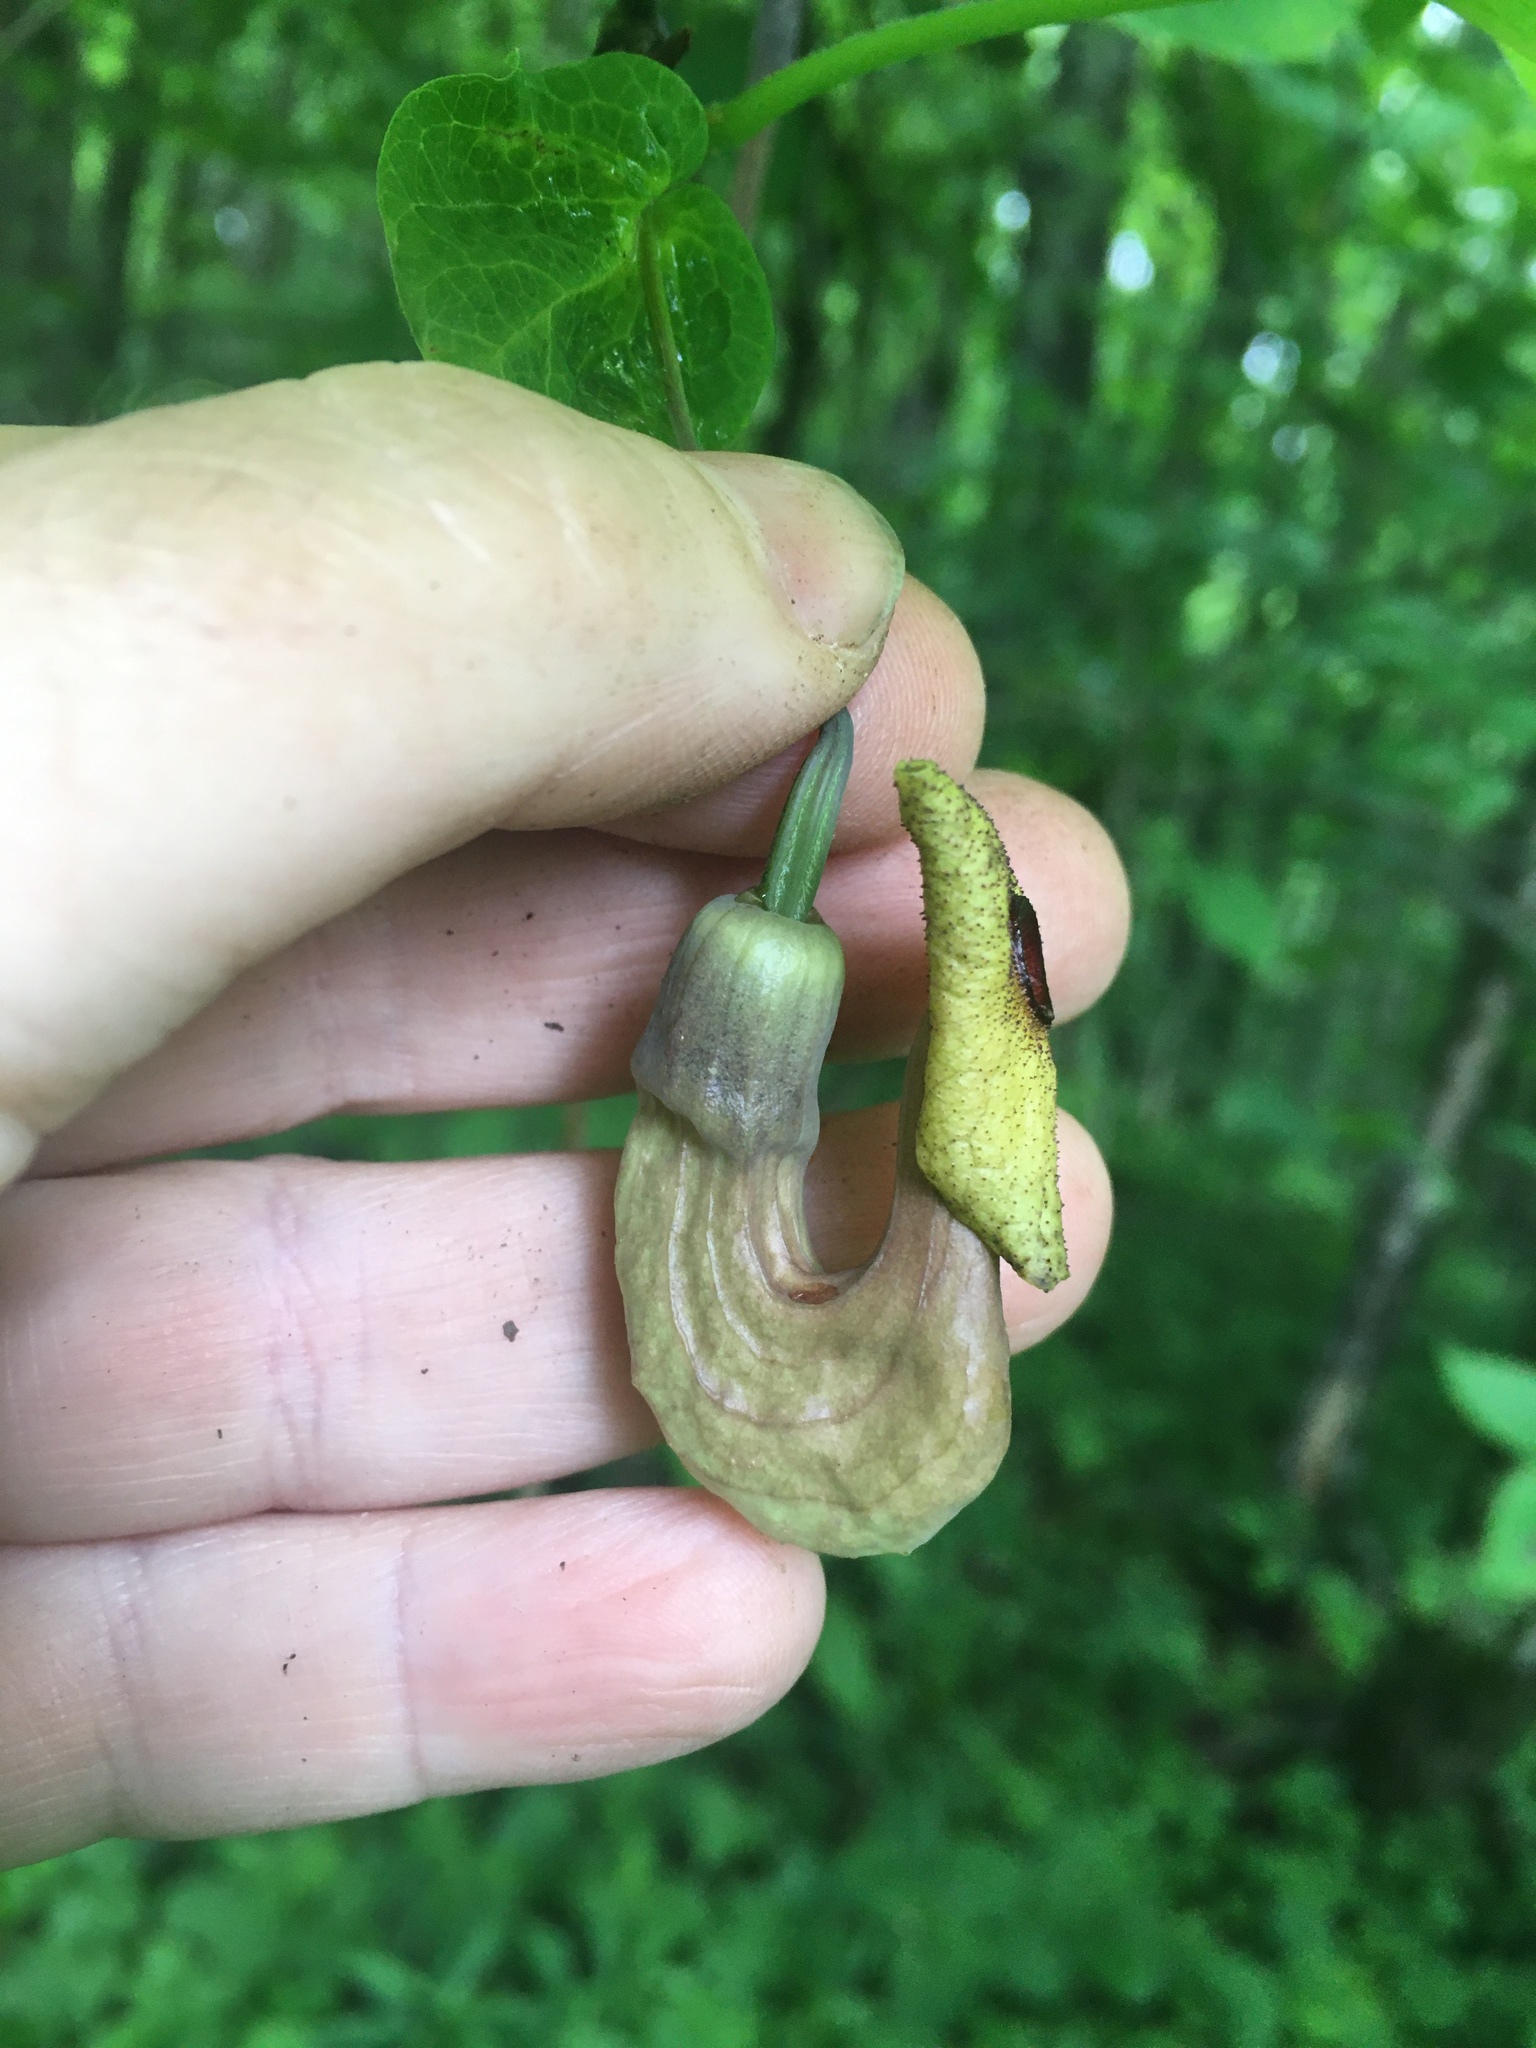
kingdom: Plantae
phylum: Tracheophyta
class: Magnoliopsida
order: Piperales
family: Aristolochiaceae
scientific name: Aristolochiaceae
